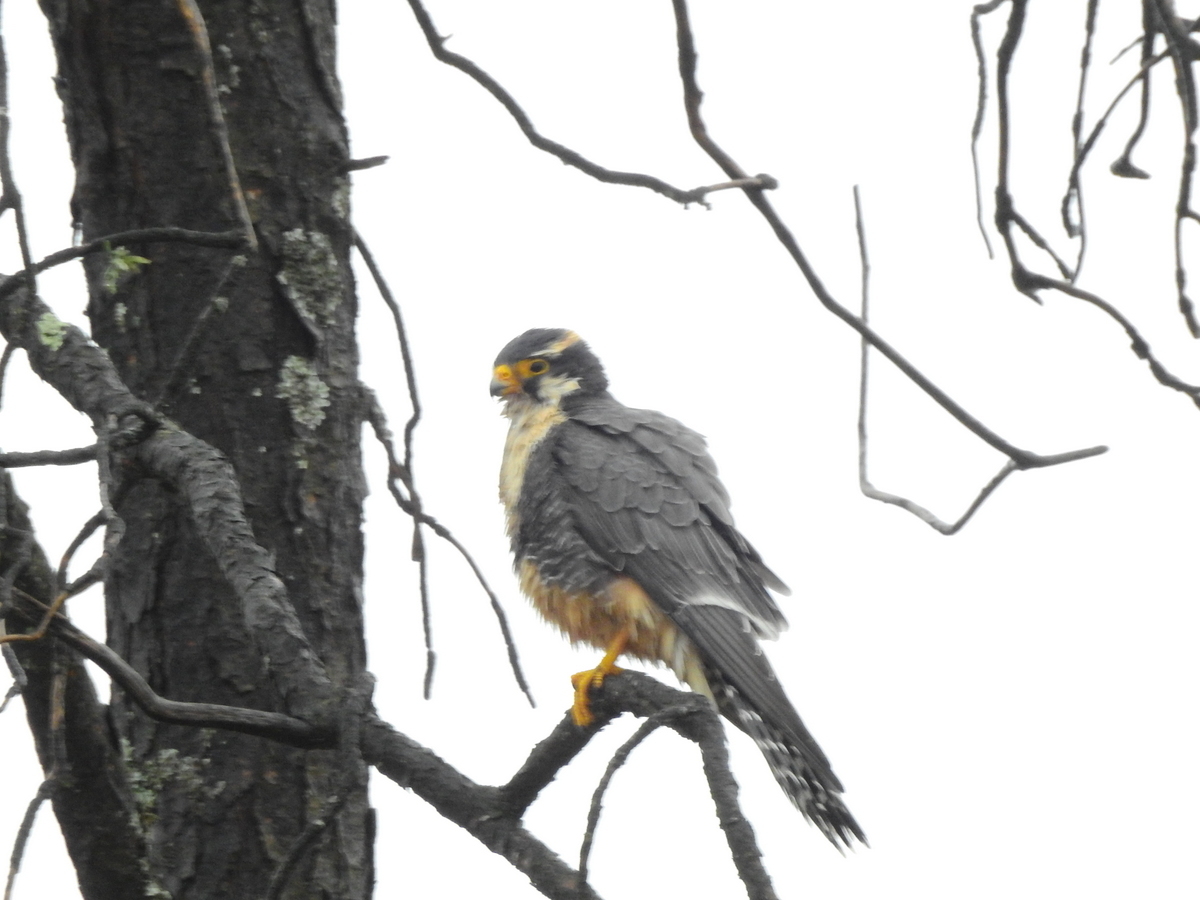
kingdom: Animalia
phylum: Chordata
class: Aves
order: Falconiformes
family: Falconidae
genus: Falco
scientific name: Falco femoralis
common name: Aplomado falcon
